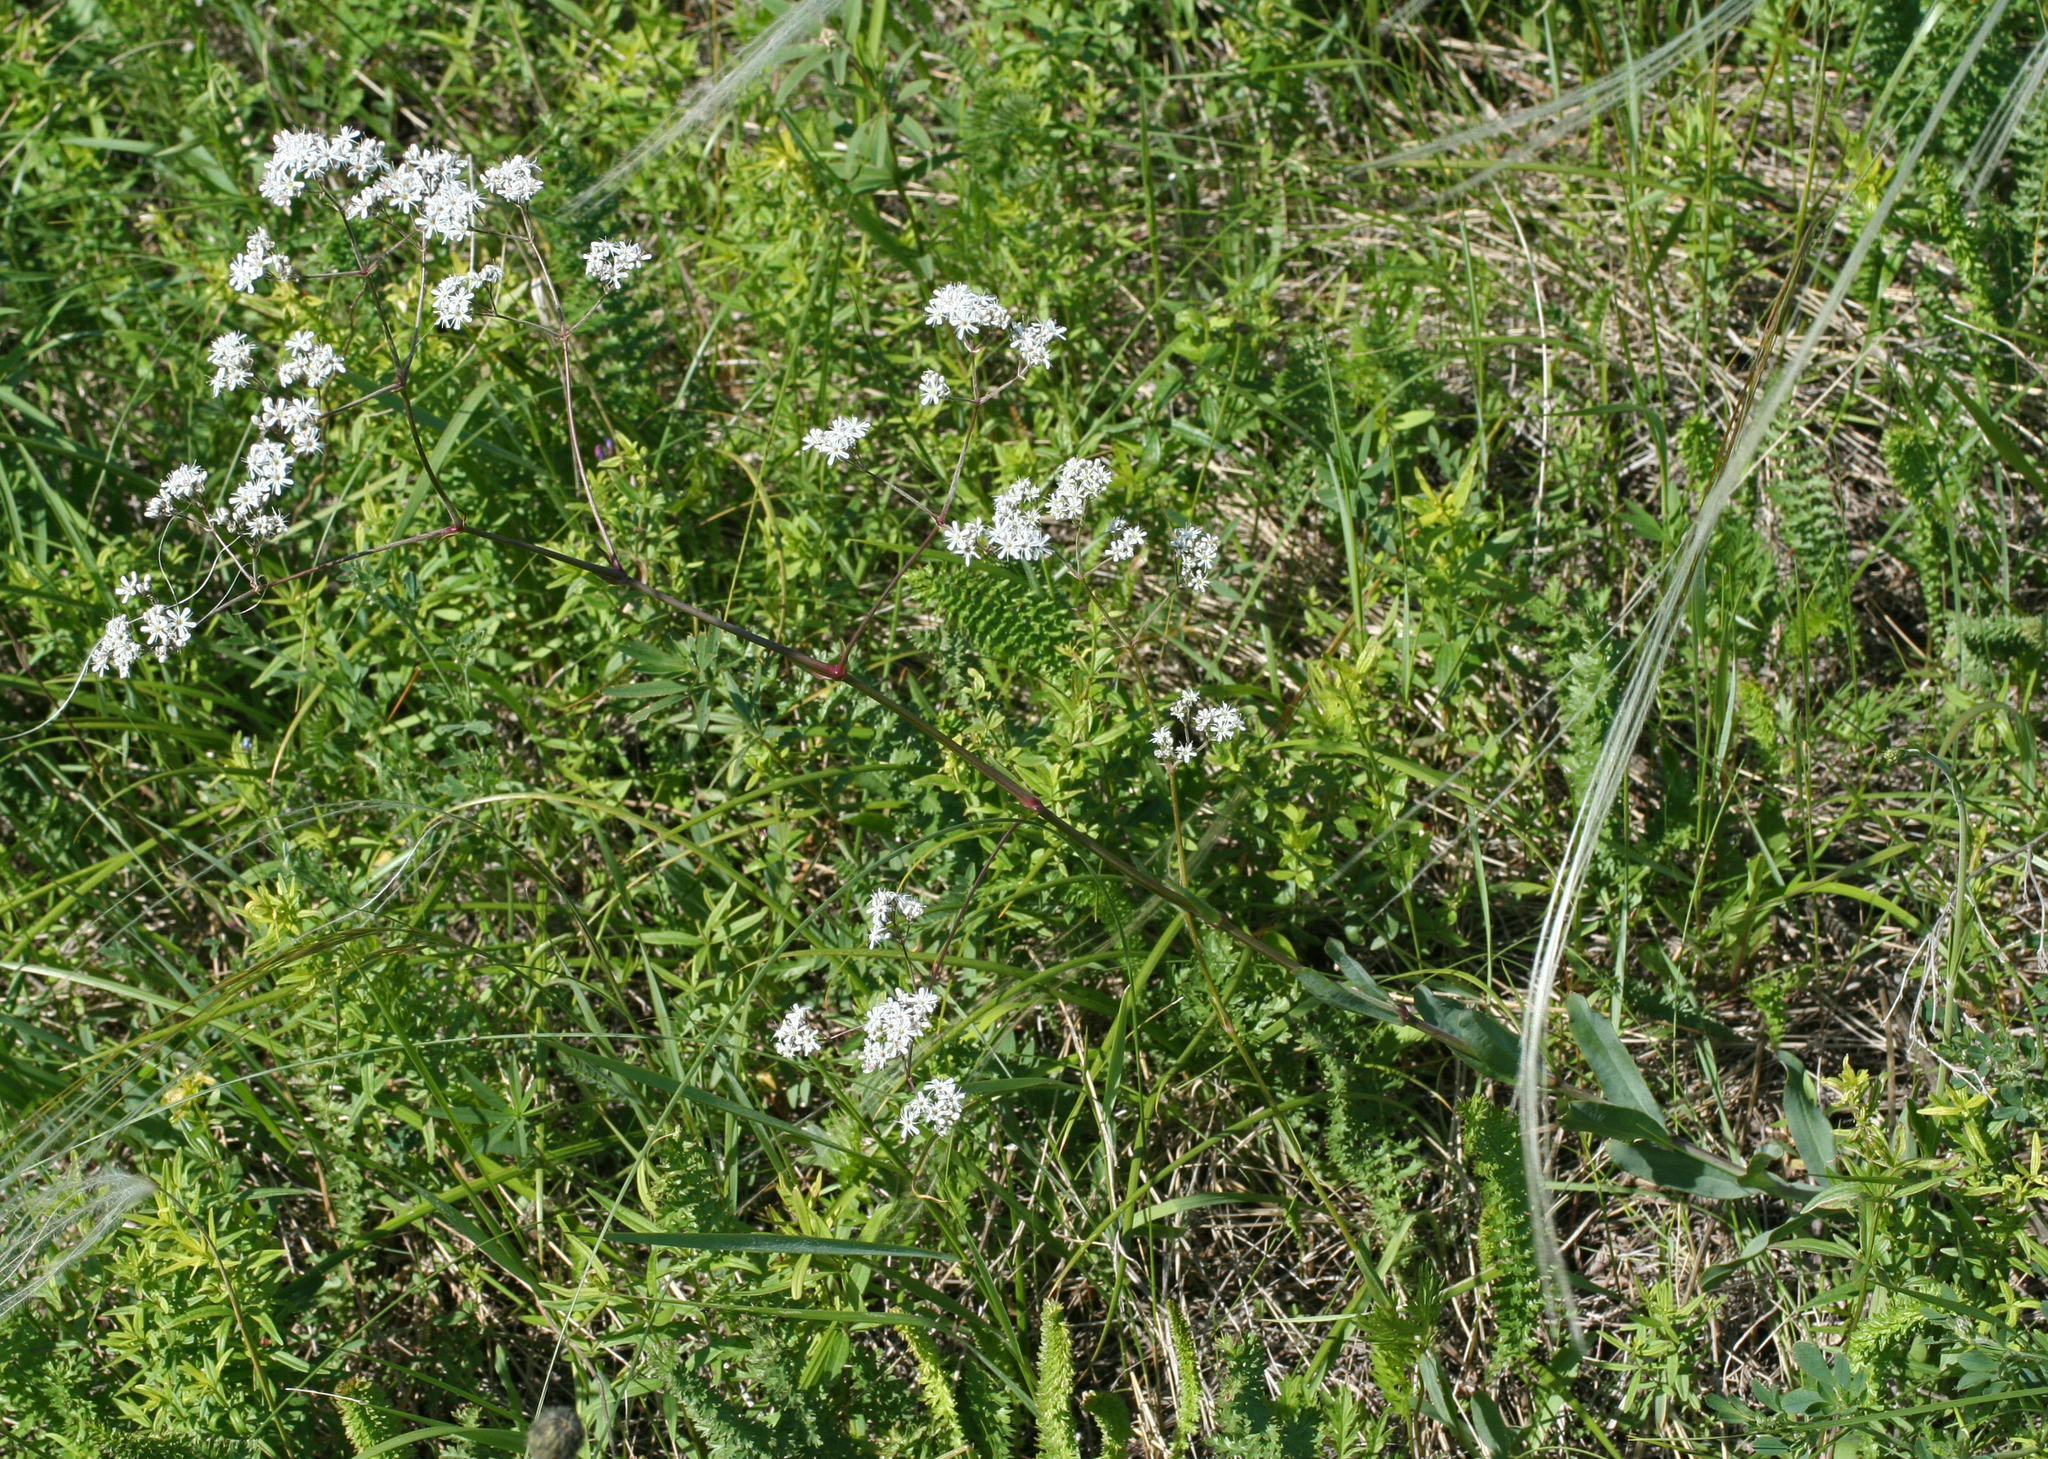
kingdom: Plantae
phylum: Tracheophyta
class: Magnoliopsida
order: Caryophyllales
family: Caryophyllaceae
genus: Gypsophila
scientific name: Gypsophila altissima
